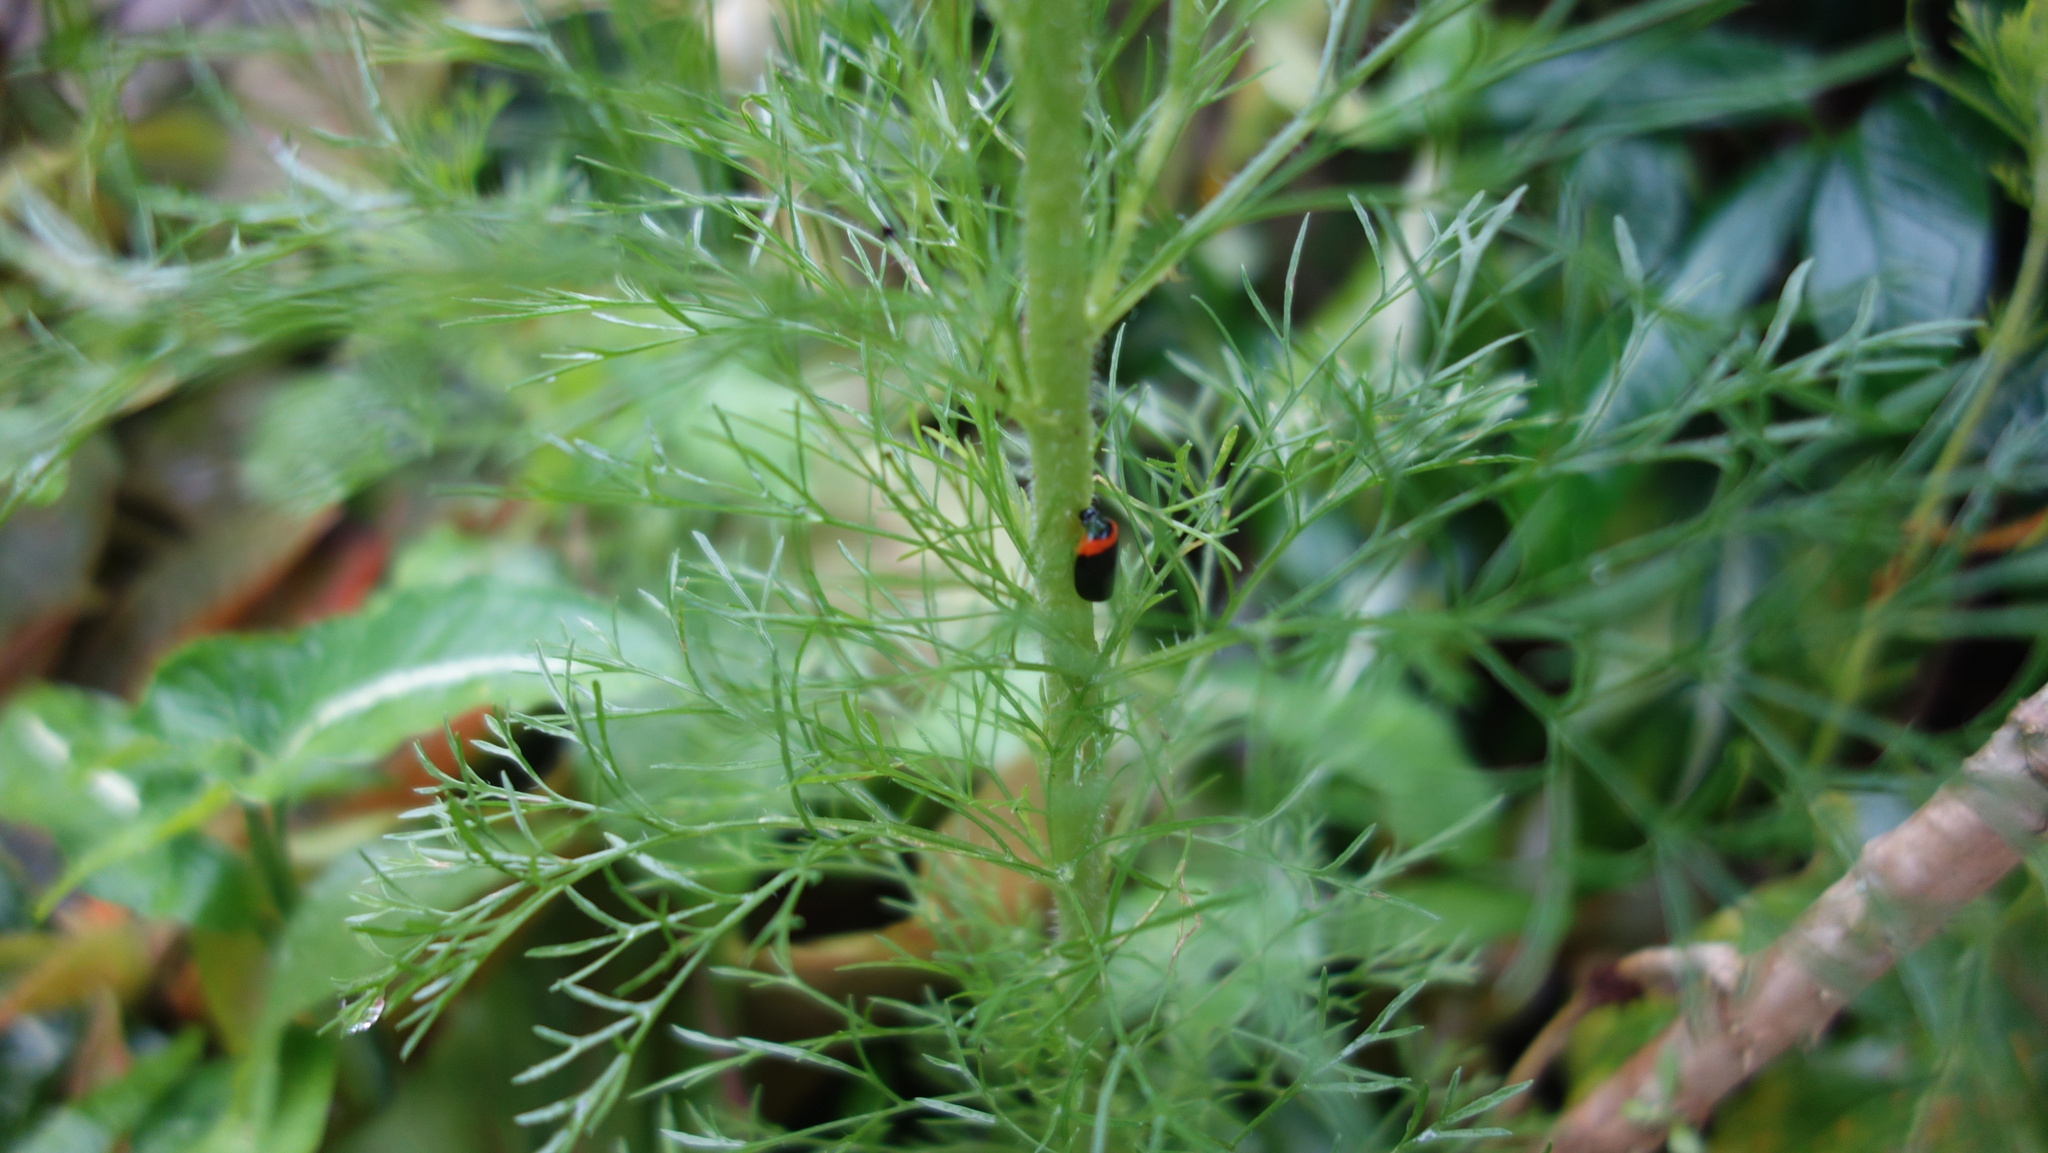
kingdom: Animalia
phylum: Arthropoda
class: Insecta
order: Hemiptera
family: Cercopidae
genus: Phymatostetha
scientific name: Phymatostetha deschampsi
